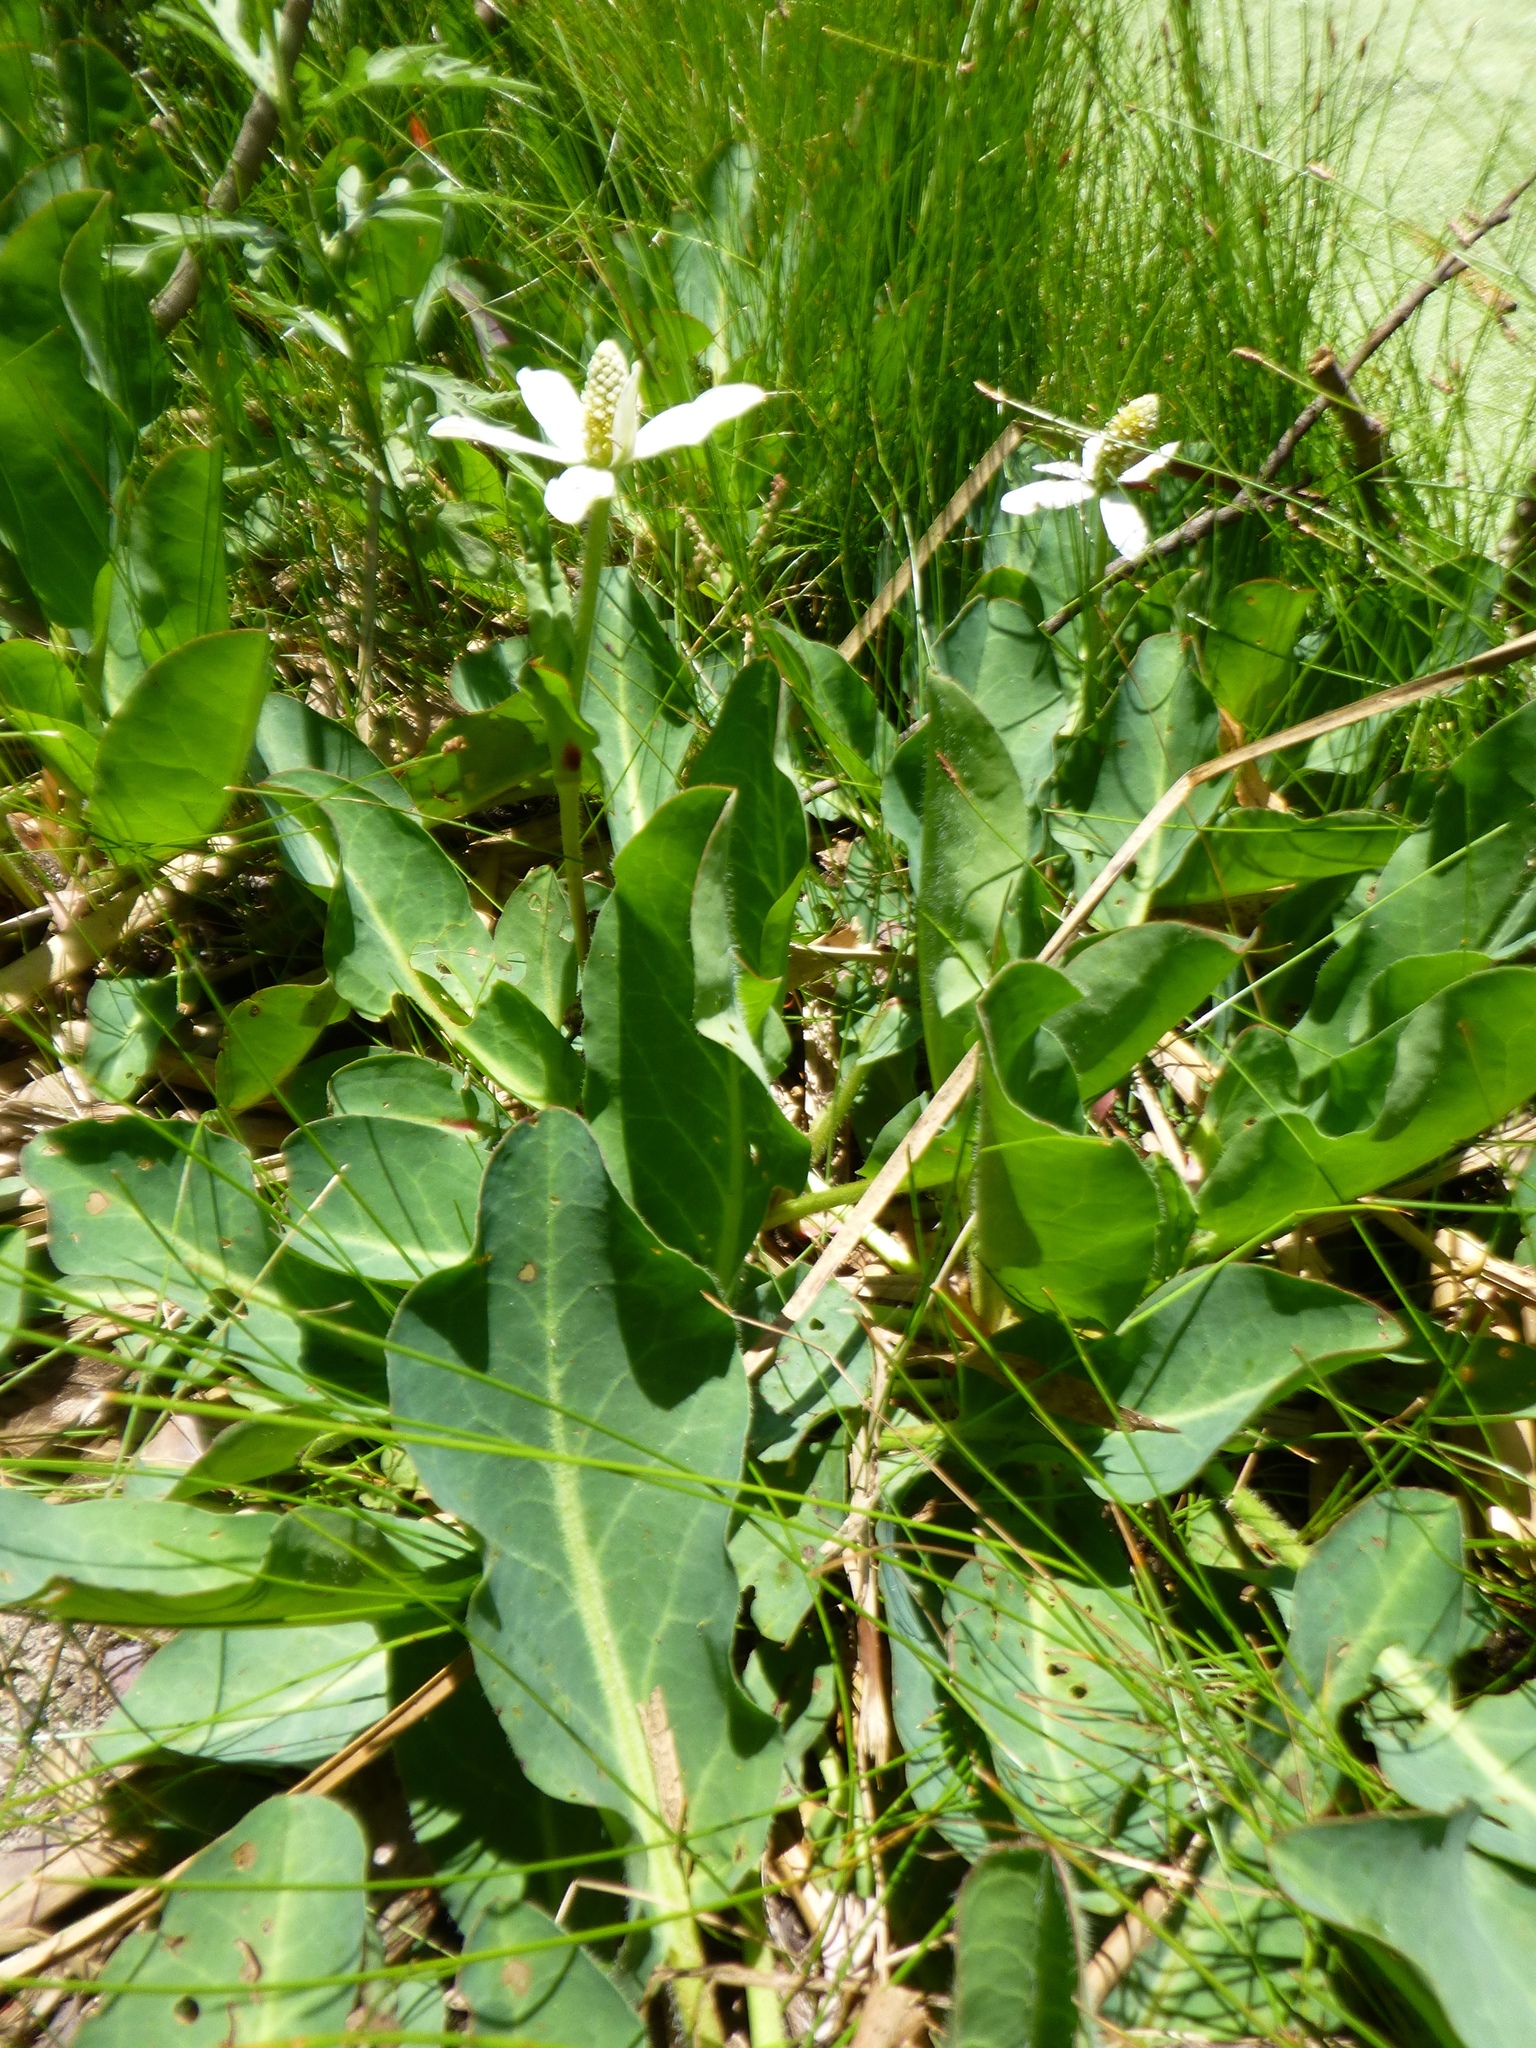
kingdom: Plantae
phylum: Tracheophyta
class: Magnoliopsida
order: Piperales
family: Saururaceae
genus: Anemopsis
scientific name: Anemopsis californica
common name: Apache-beads
